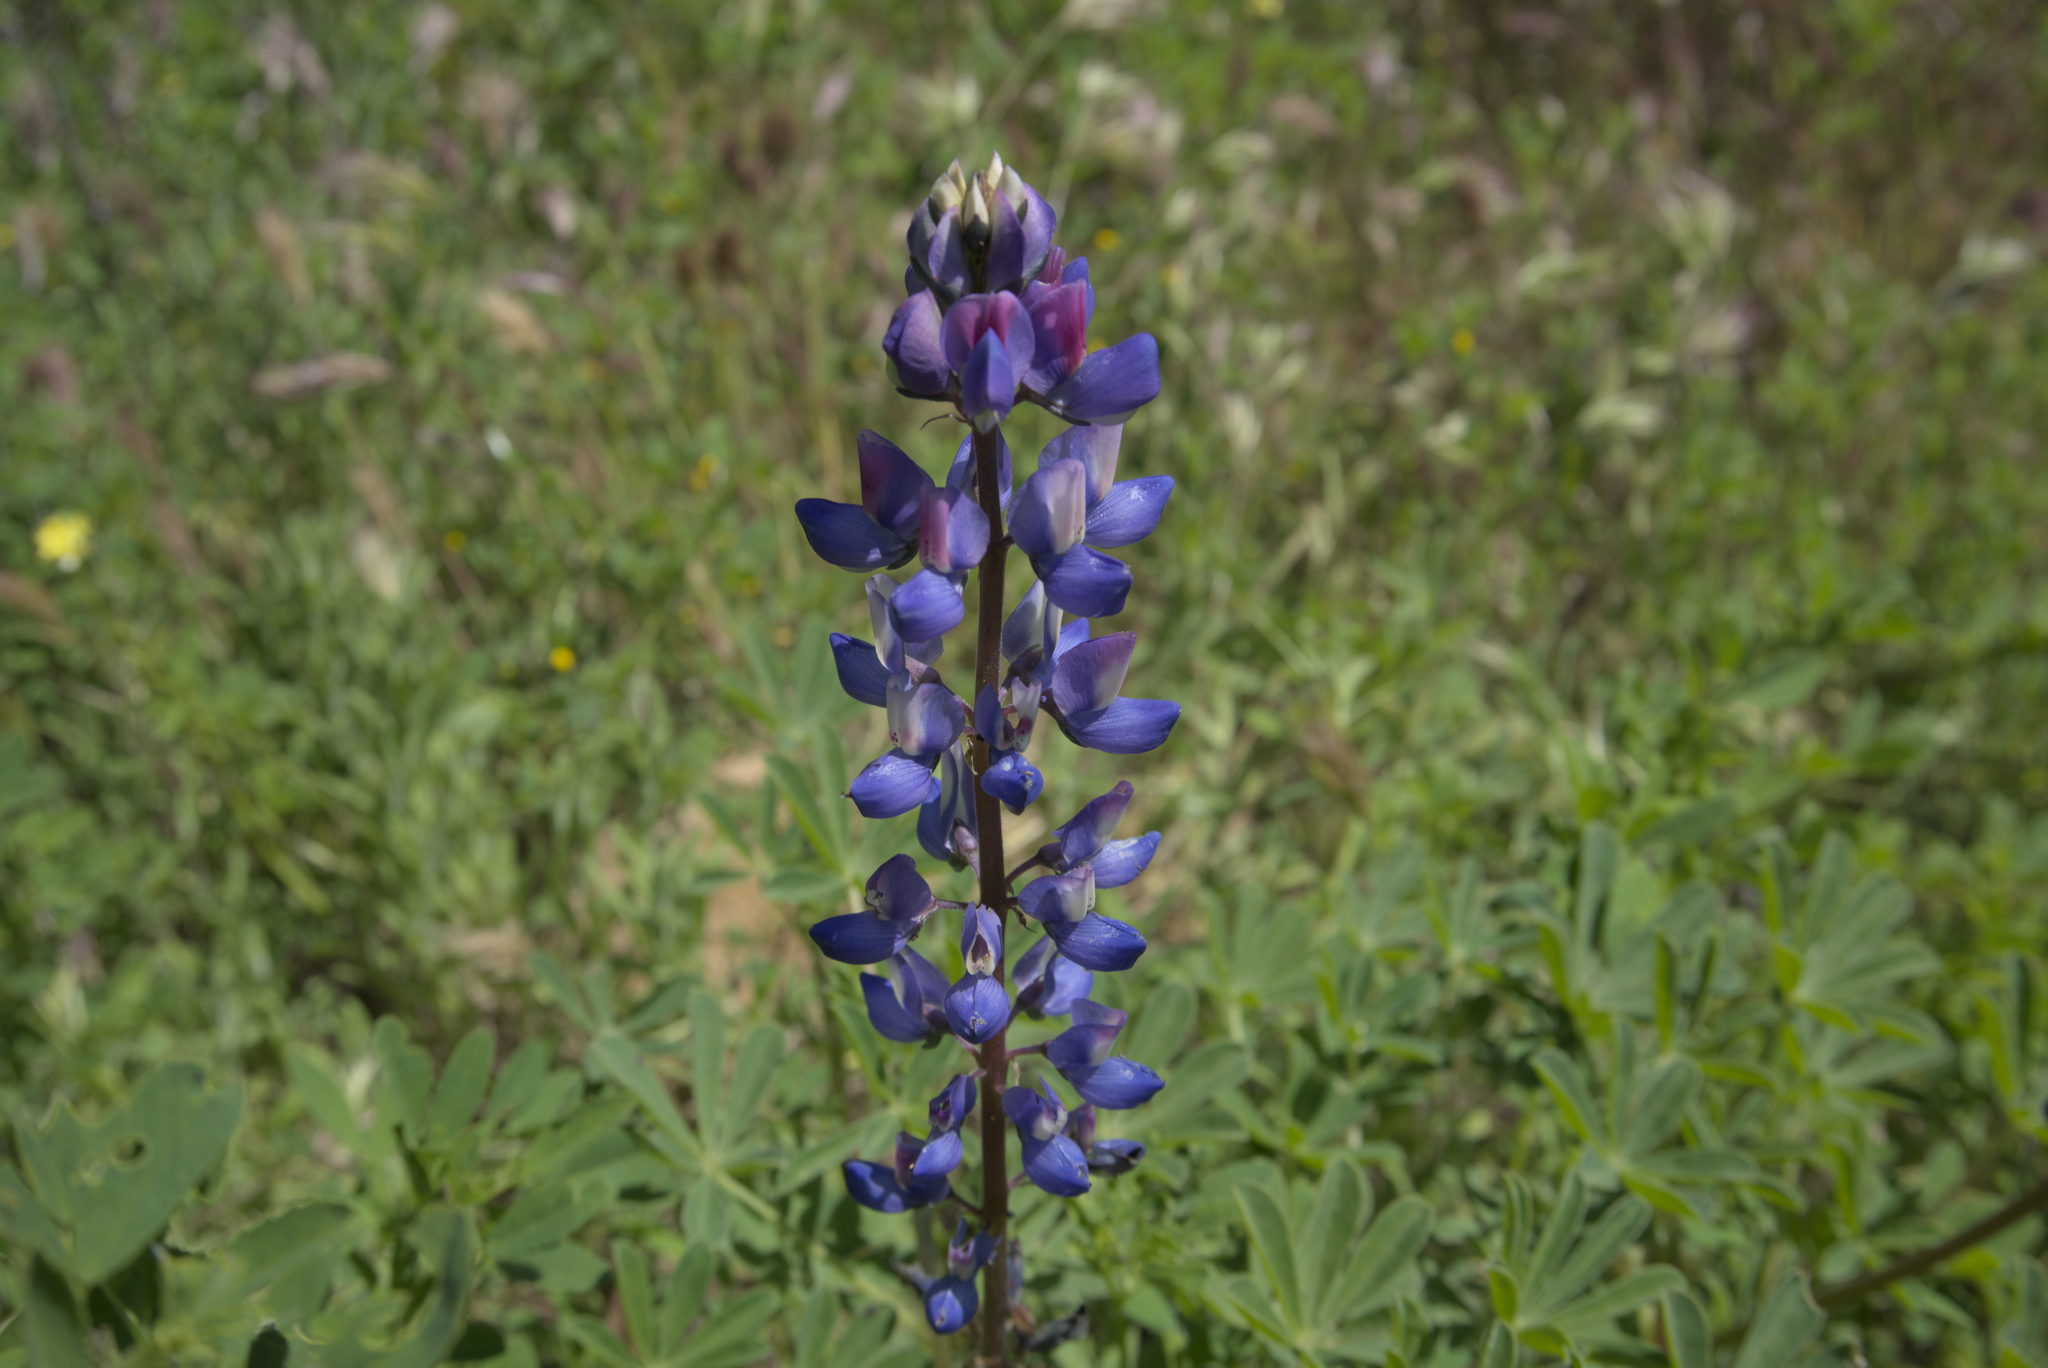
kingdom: Plantae
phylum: Tracheophyta
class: Magnoliopsida
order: Fabales
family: Fabaceae
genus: Lupinus
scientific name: Lupinus succulentus
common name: Arroyo lupine
